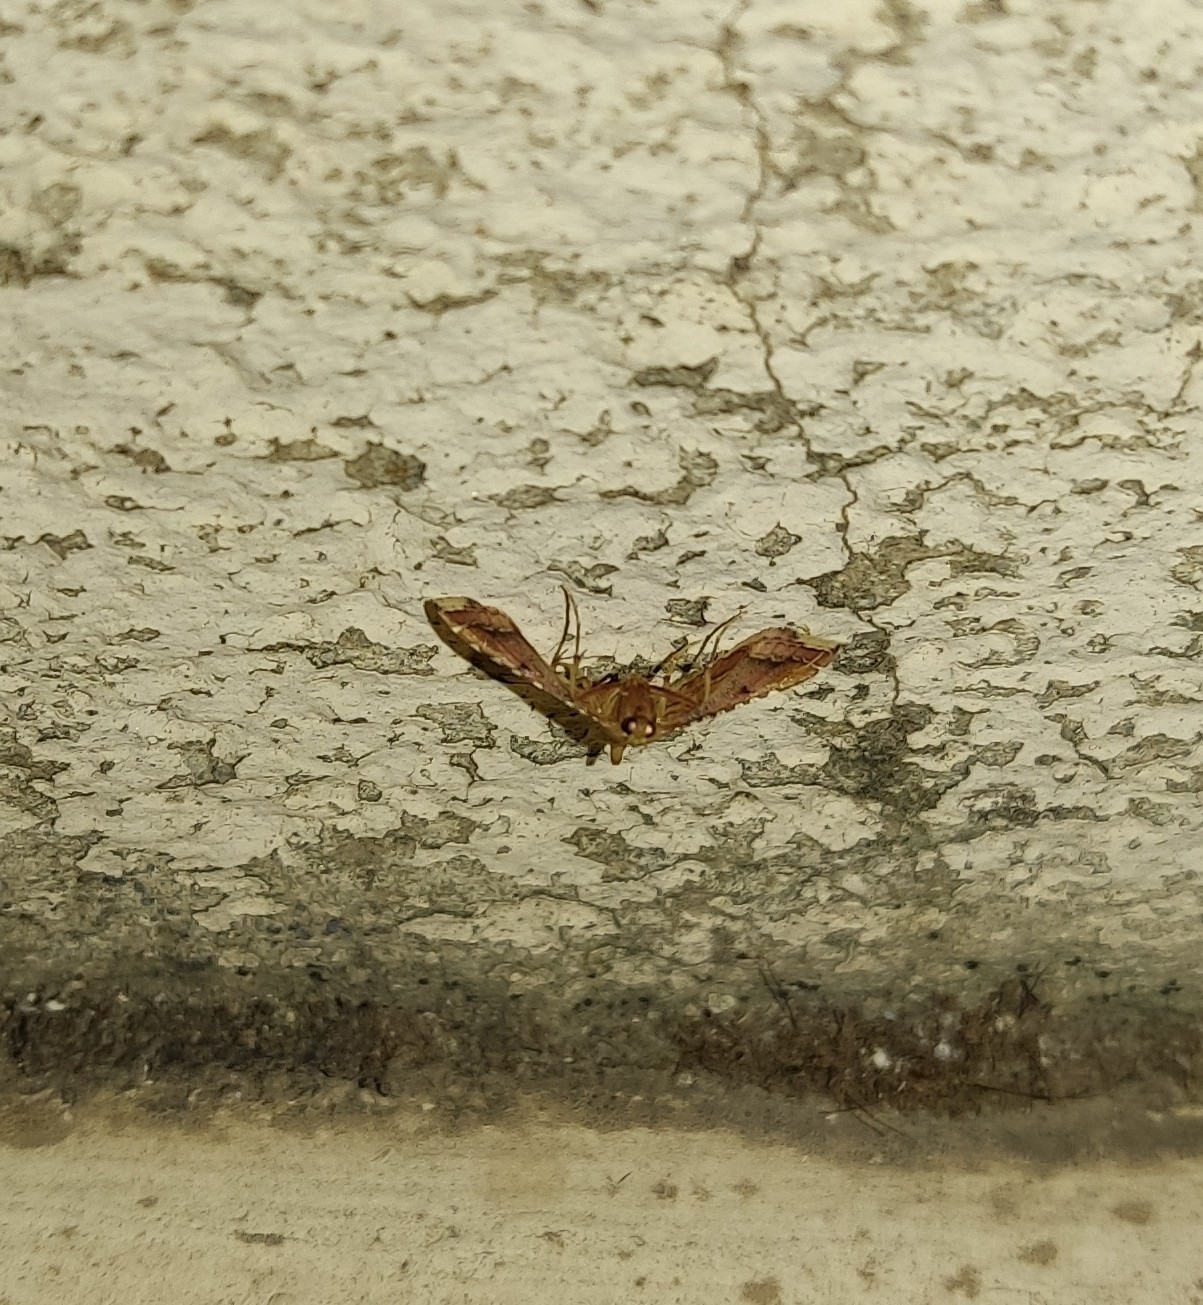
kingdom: Animalia
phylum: Arthropoda
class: Insecta
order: Lepidoptera
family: Pyralidae
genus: Endotricha
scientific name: Endotricha flammealis
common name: Rosy tabby
